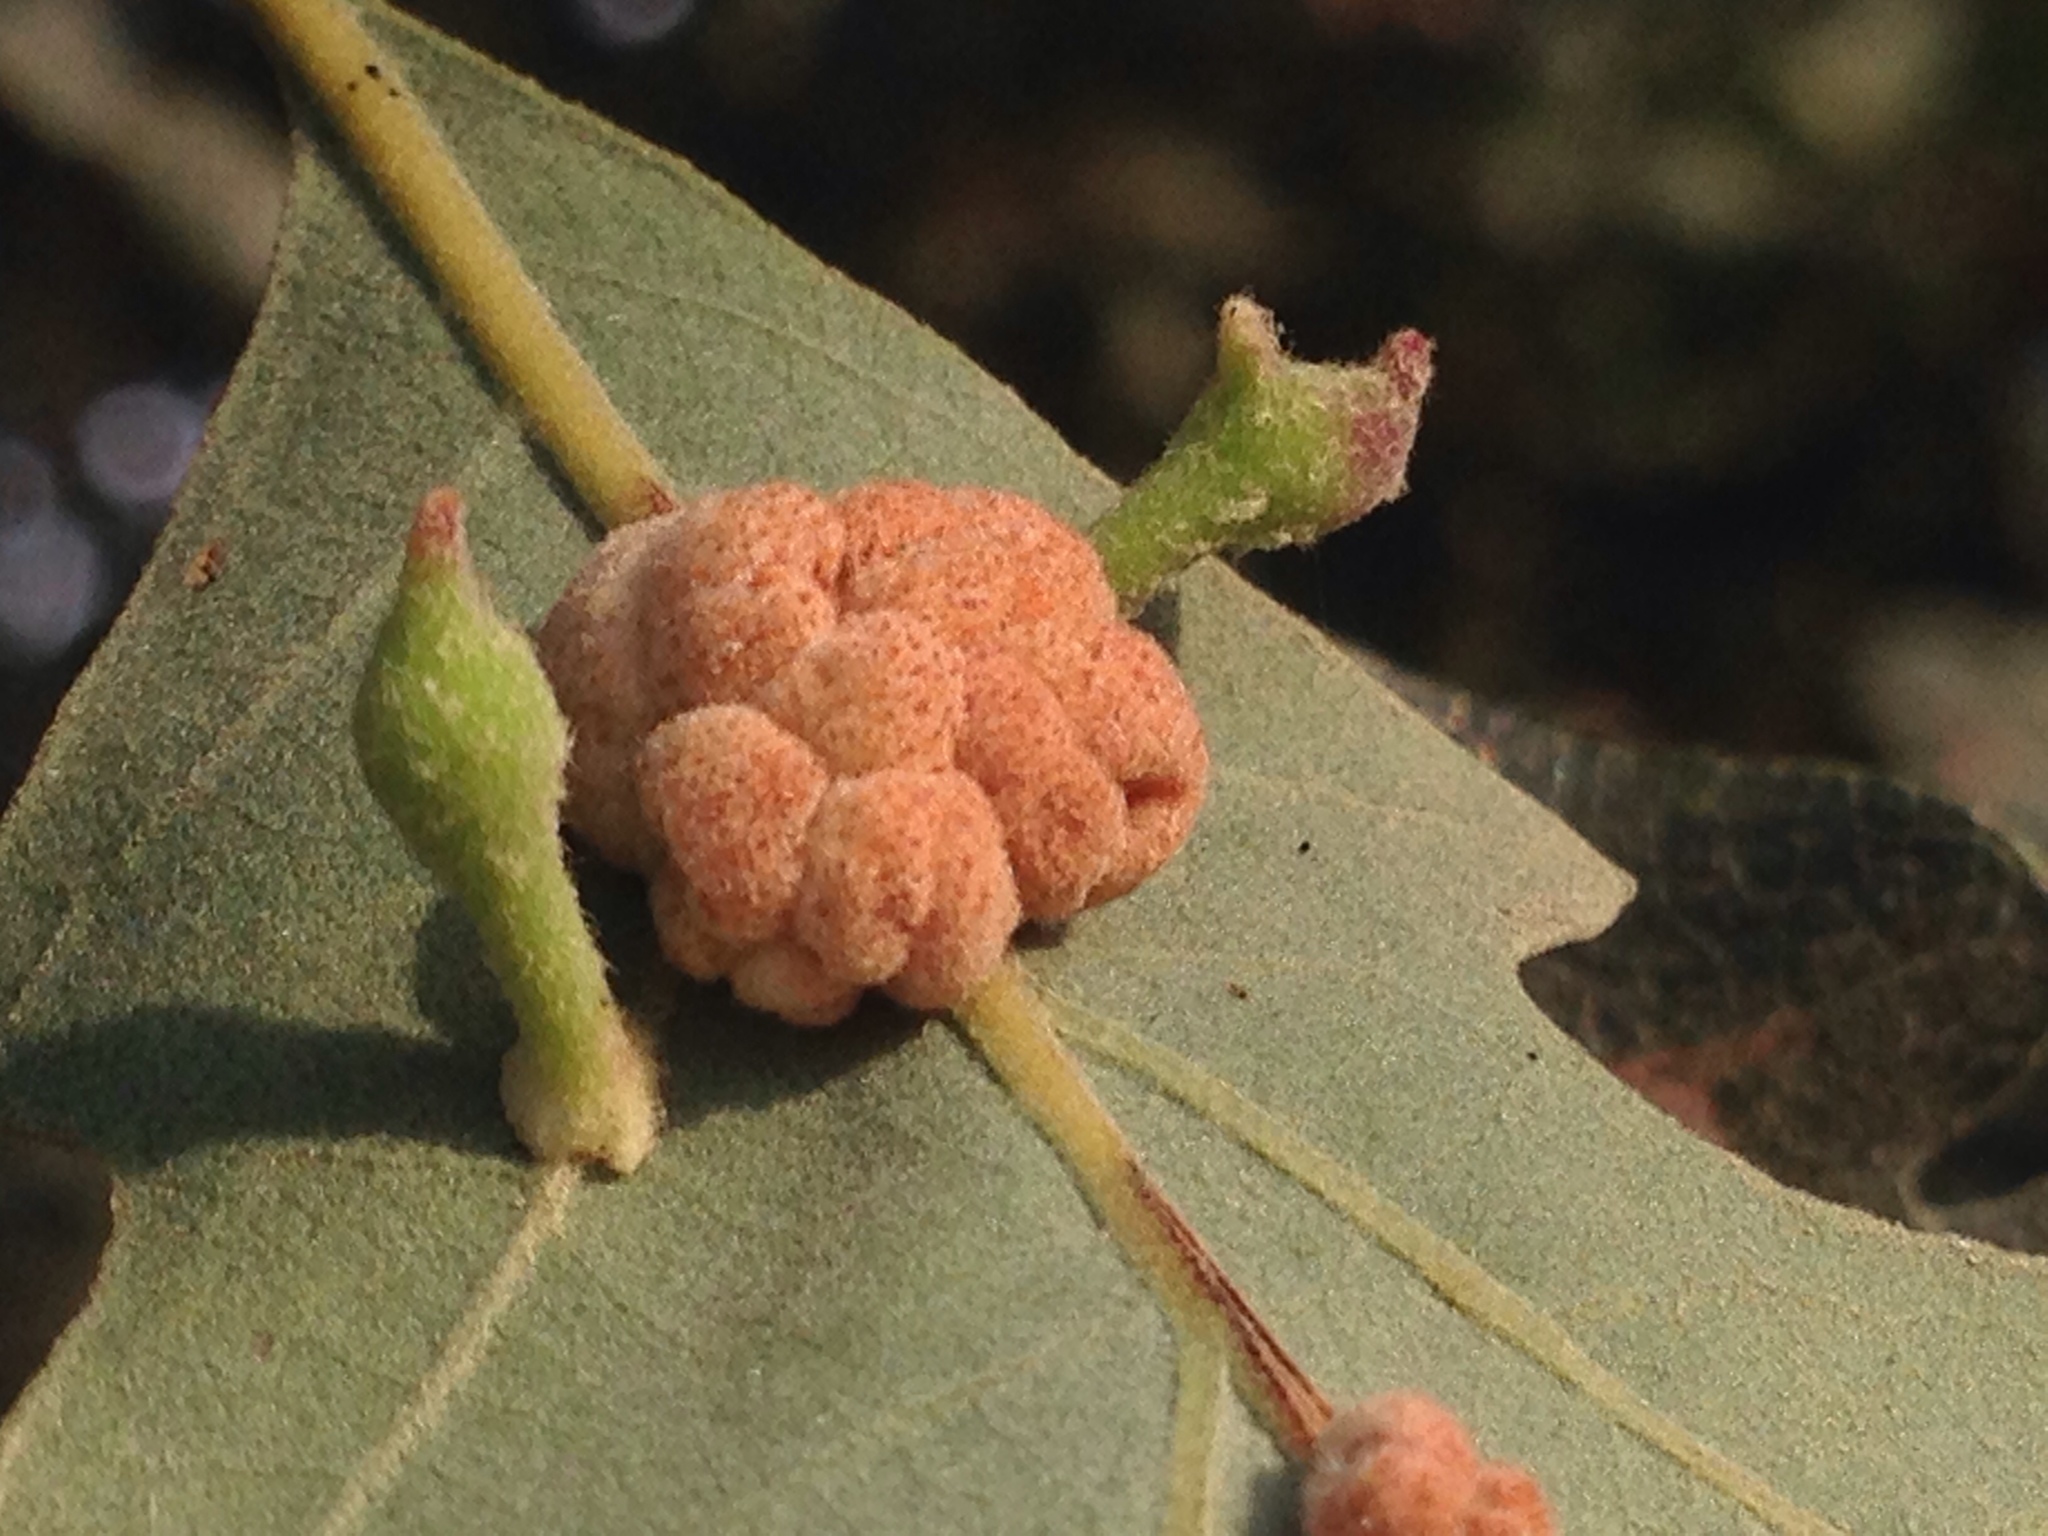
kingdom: Animalia
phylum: Arthropoda
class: Insecta
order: Hymenoptera
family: Cynipidae
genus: Atrusca
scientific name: Atrusca
